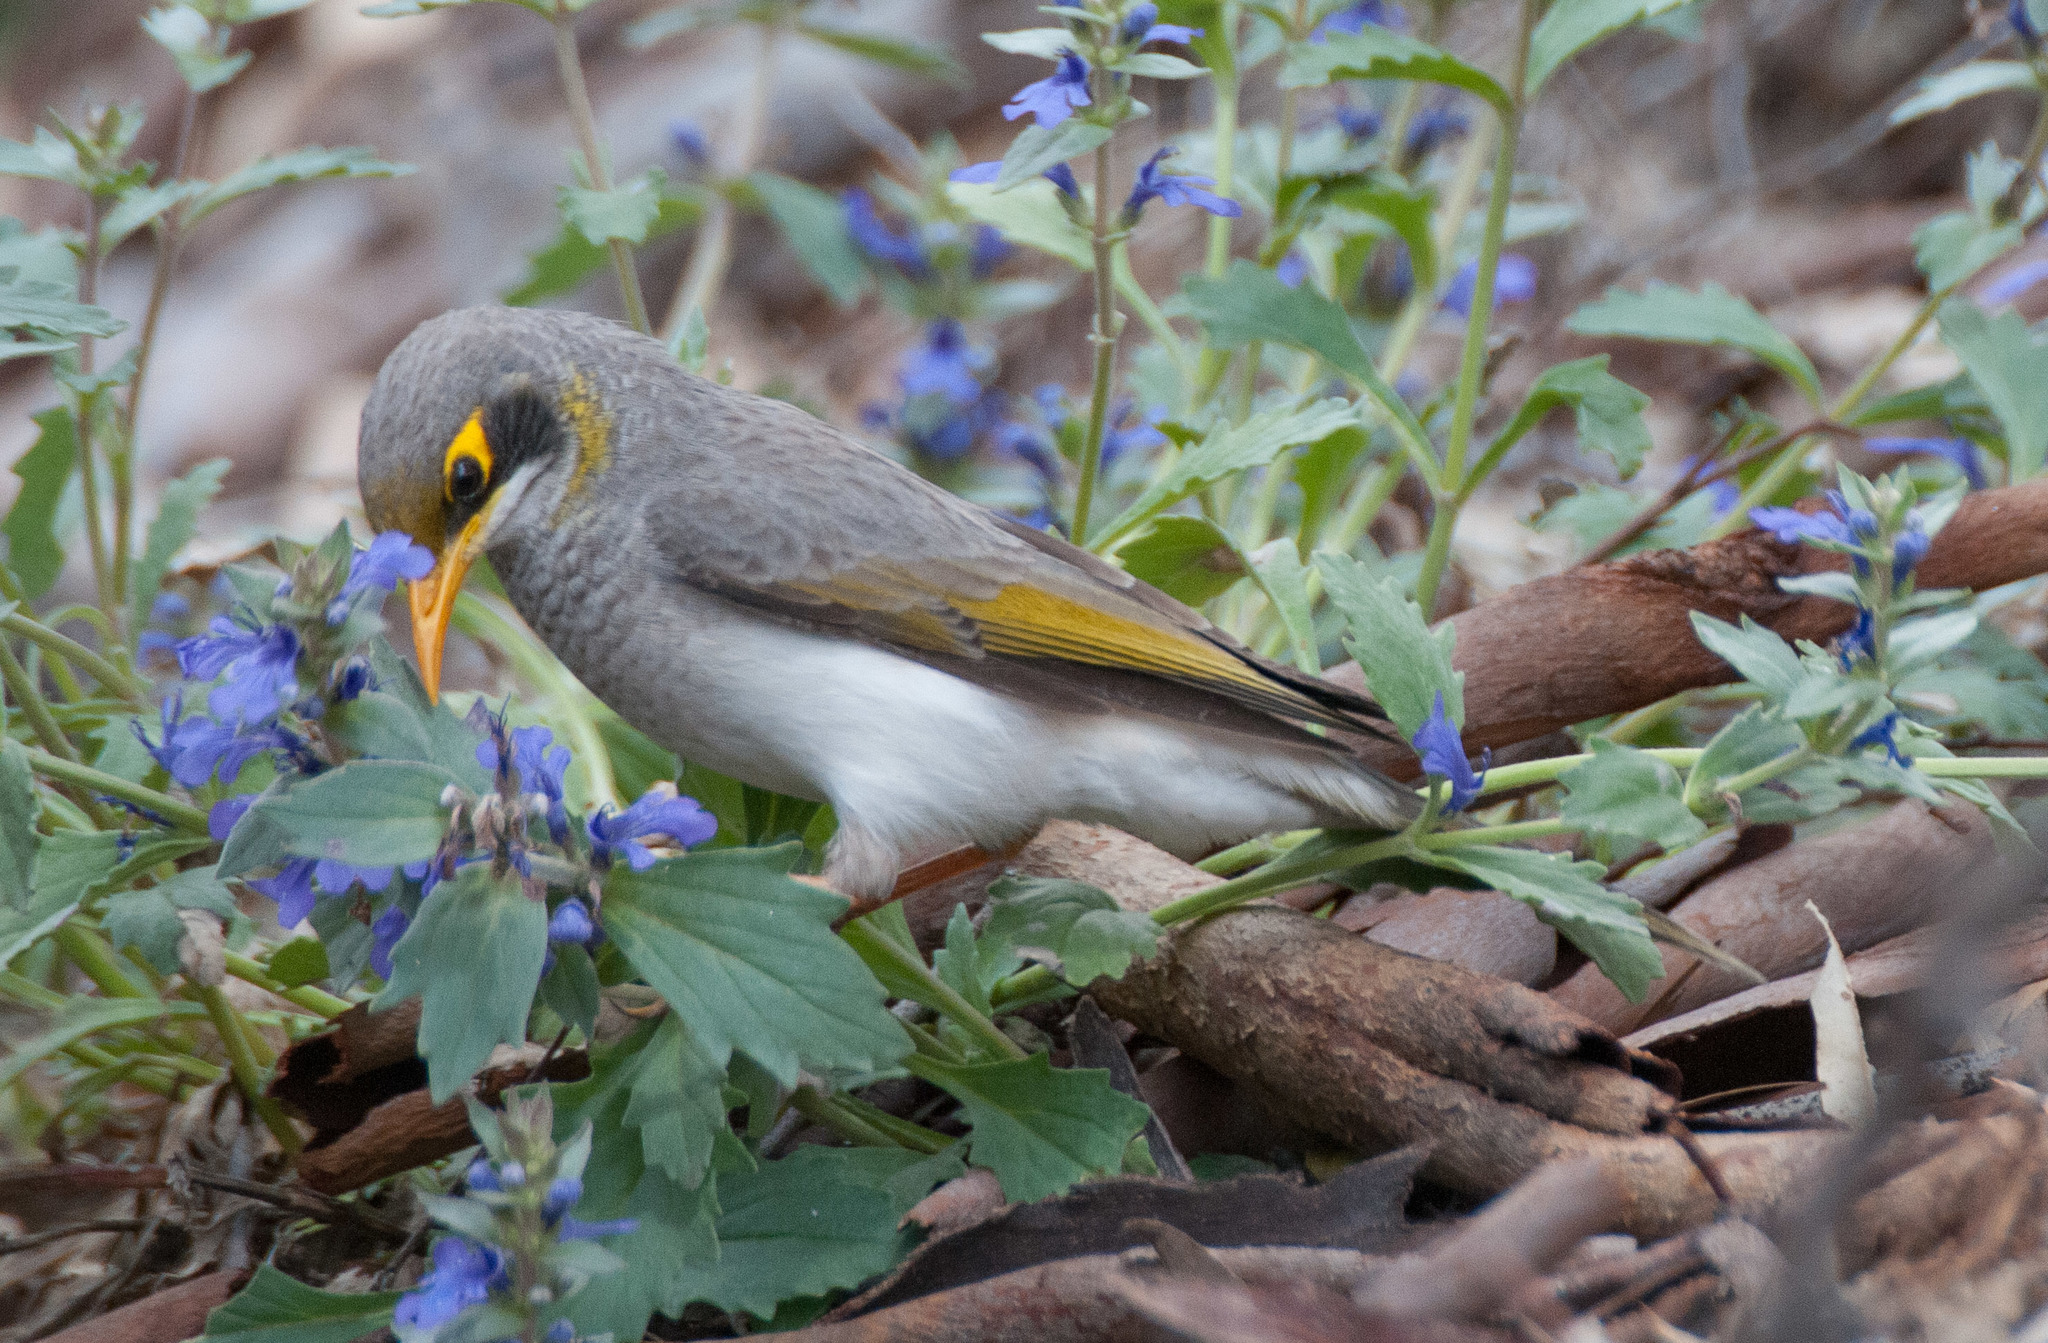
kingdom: Animalia
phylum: Chordata
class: Aves
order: Passeriformes
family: Meliphagidae
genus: Manorina
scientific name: Manorina flavigula
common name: Yellow-throated miner
